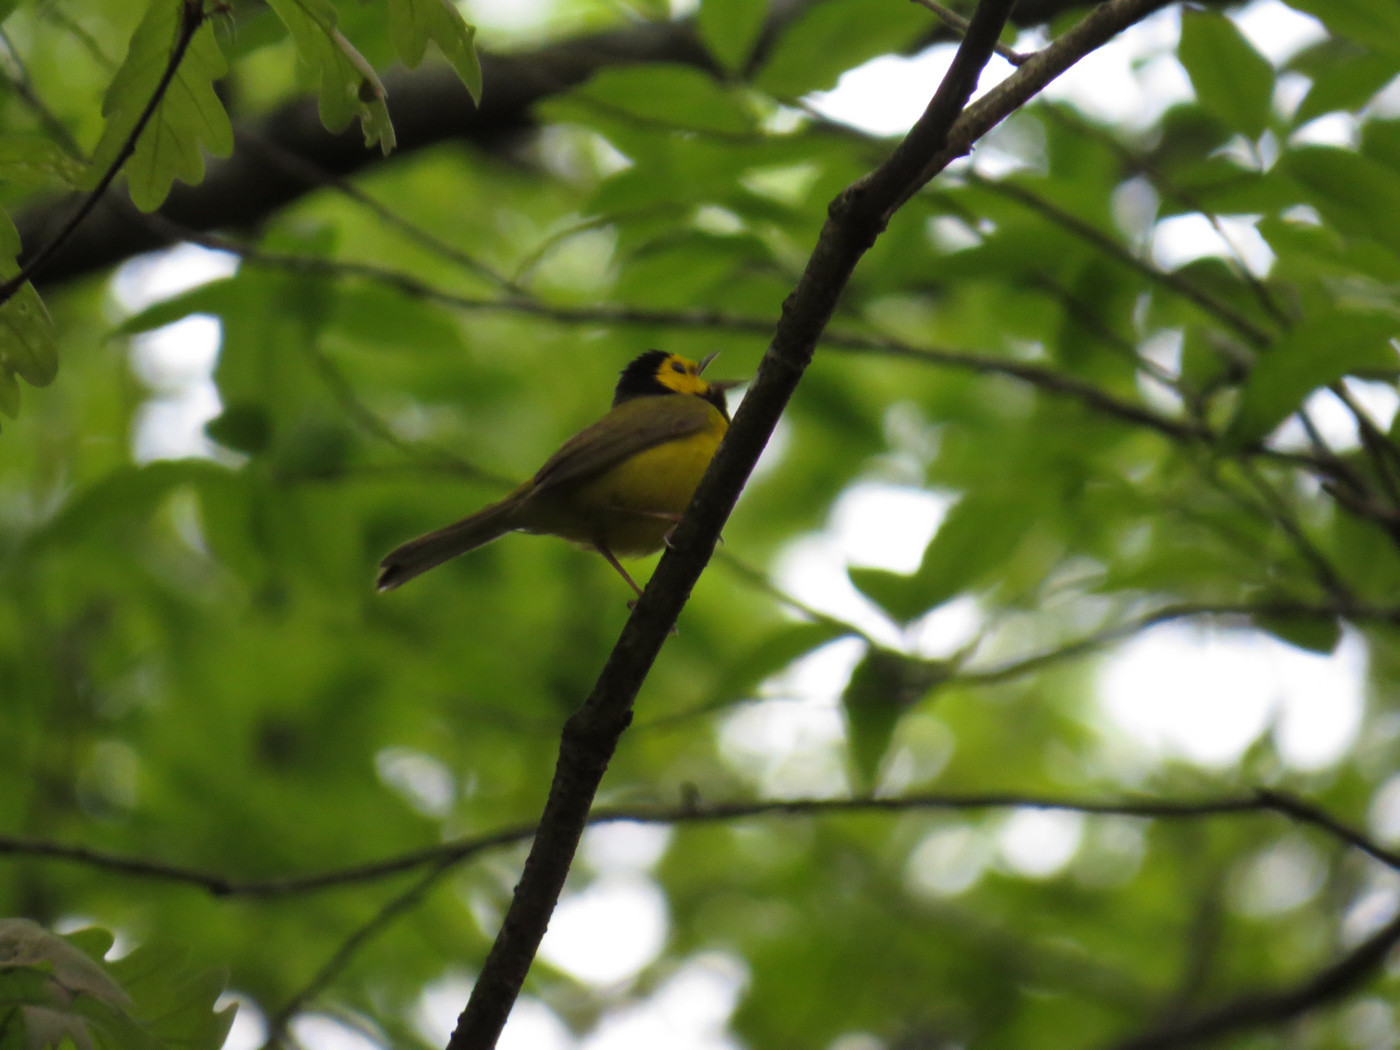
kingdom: Animalia
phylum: Chordata
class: Aves
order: Passeriformes
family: Parulidae
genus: Setophaga
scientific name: Setophaga citrina
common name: Hooded warbler
